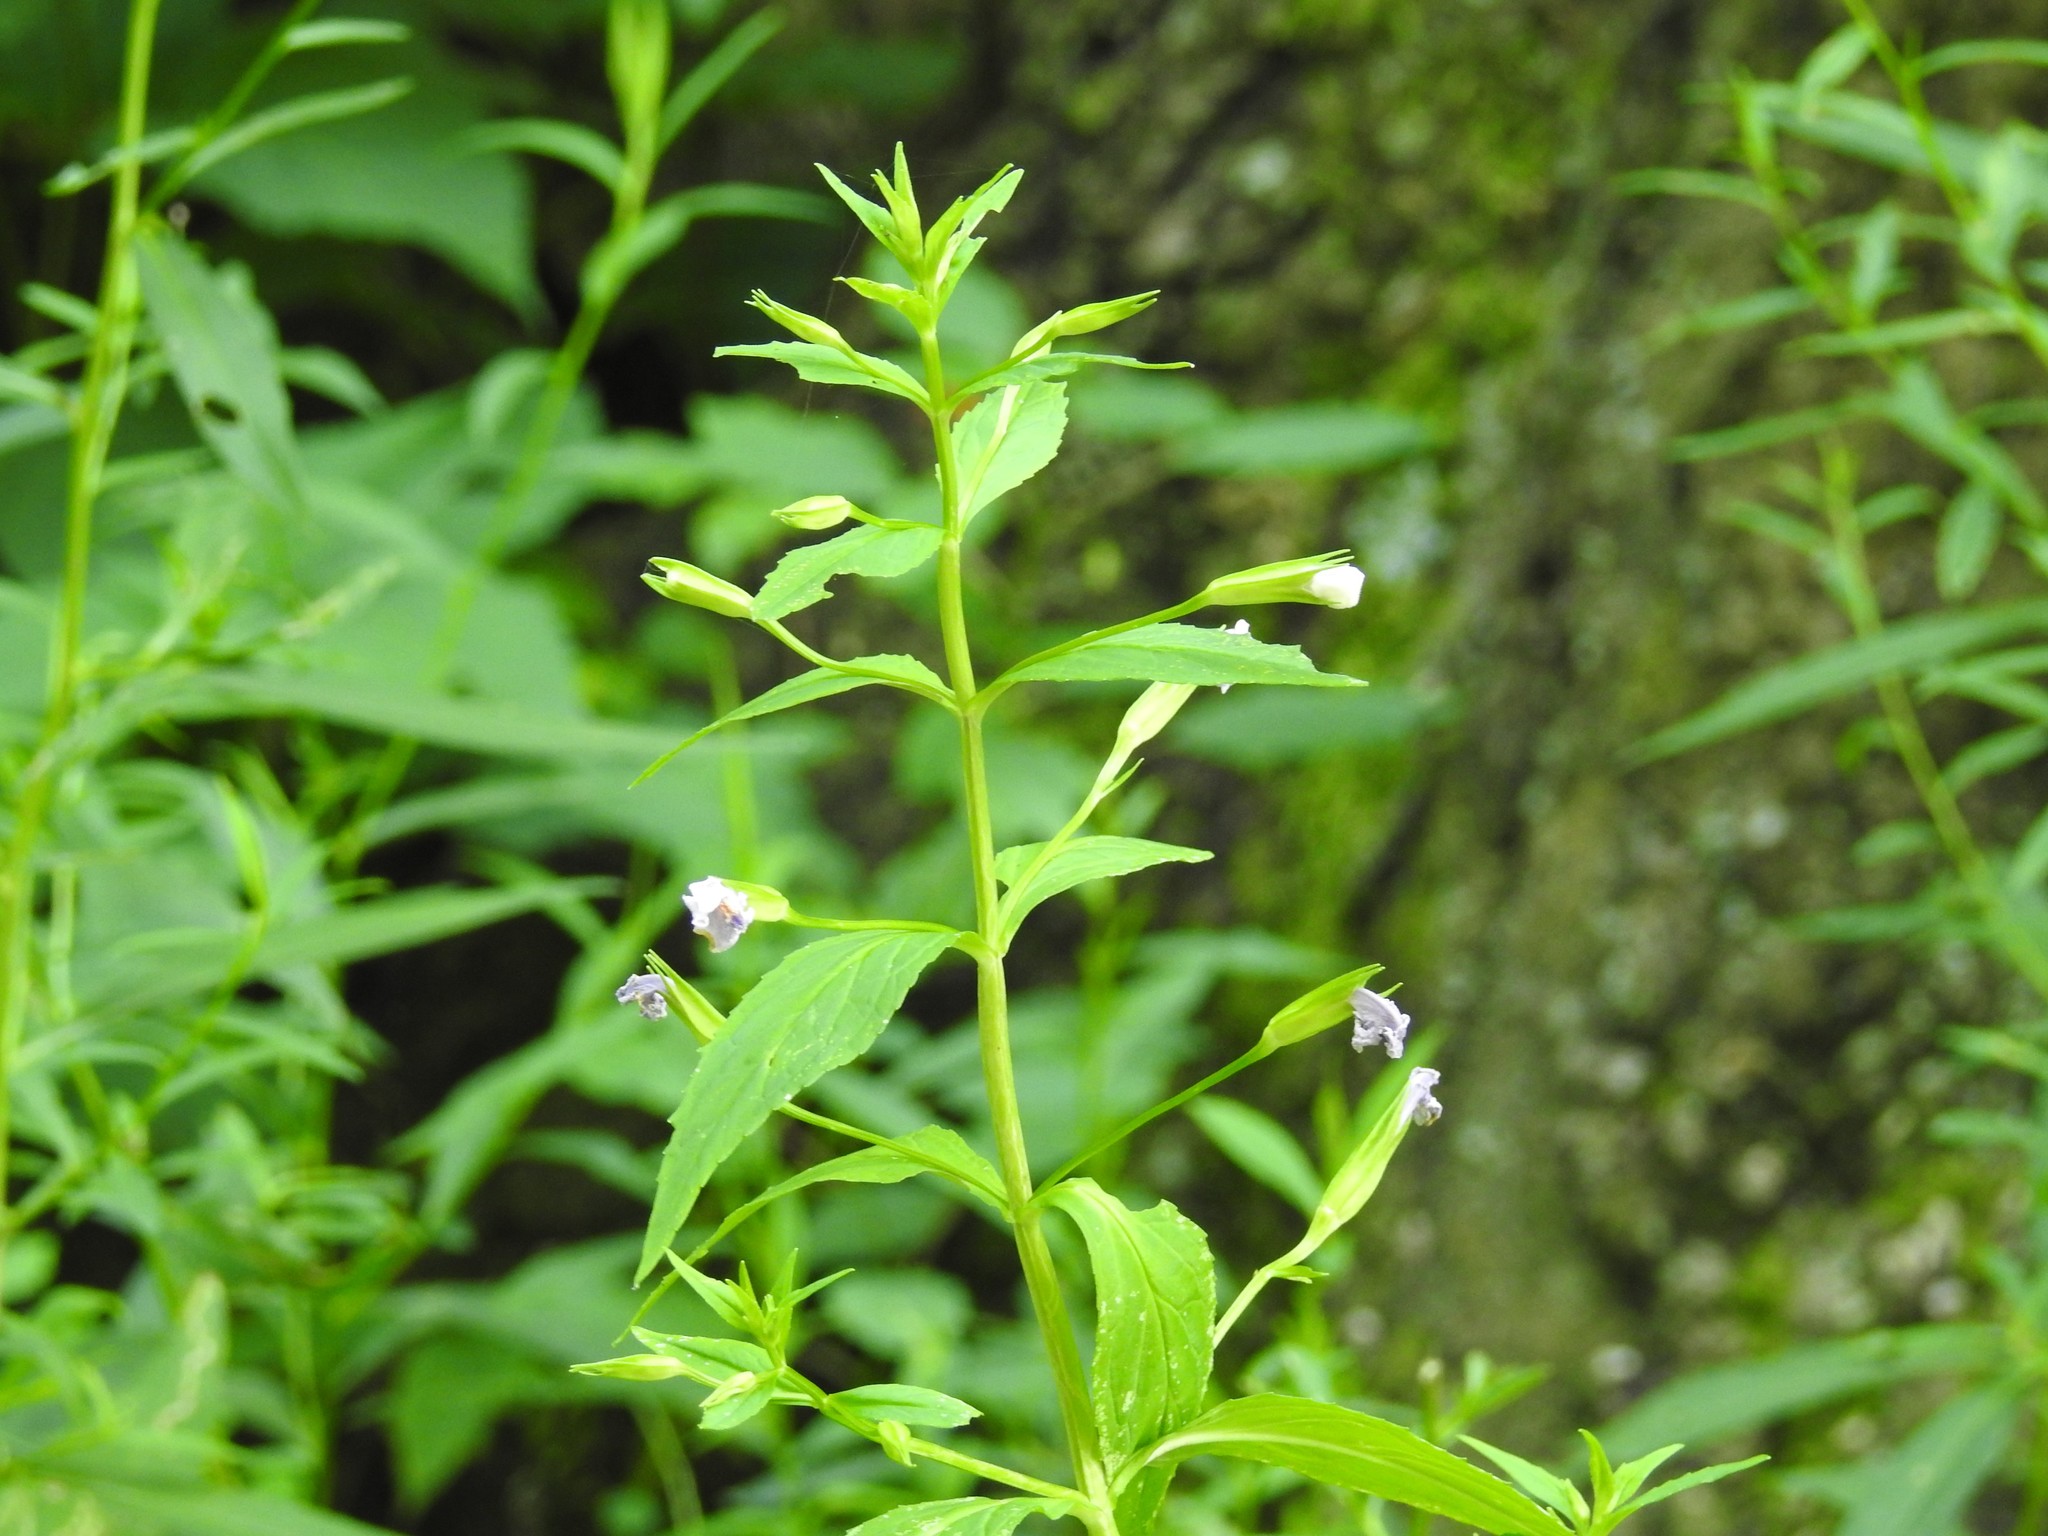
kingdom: Plantae
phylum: Tracheophyta
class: Magnoliopsida
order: Lamiales
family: Phrymaceae
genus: Mimulus
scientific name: Mimulus ringens
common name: Allegheny monkeyflower
